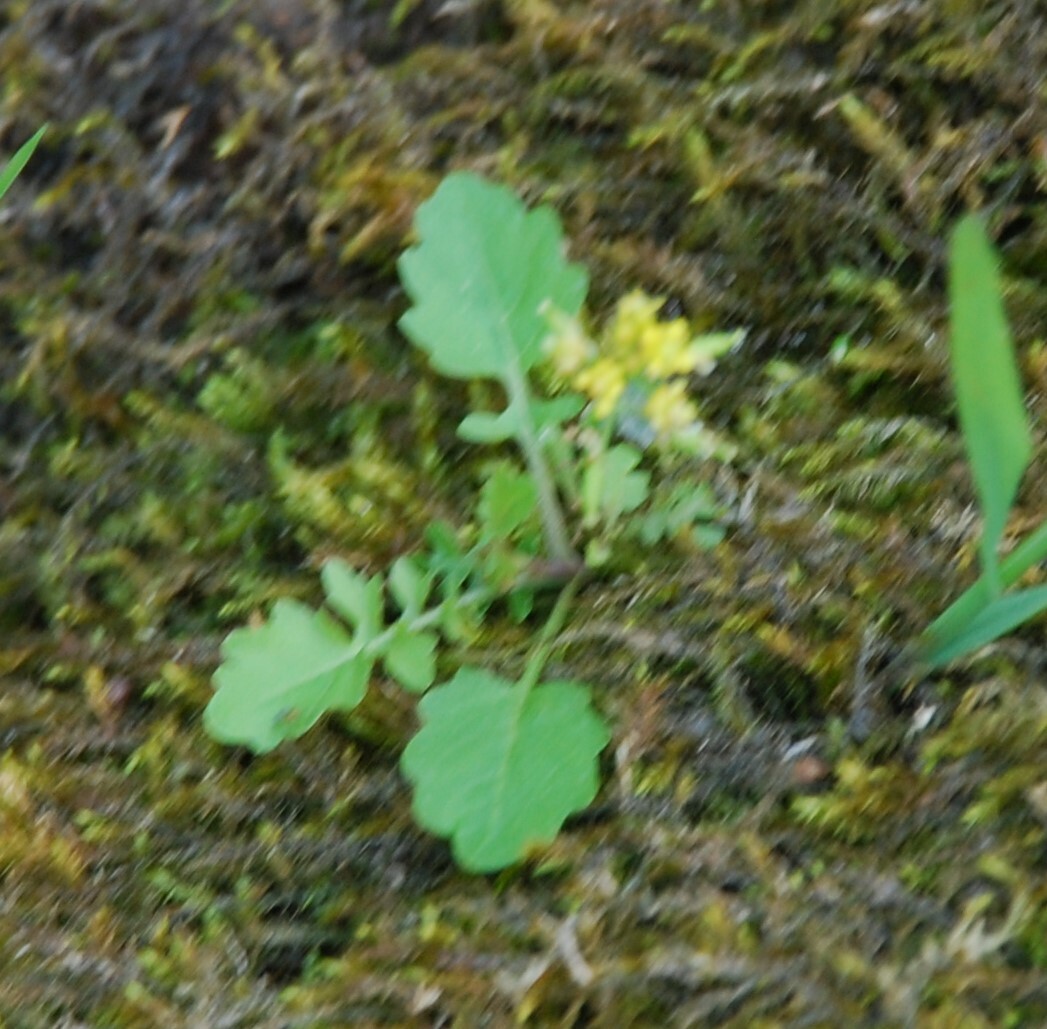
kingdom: Plantae
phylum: Tracheophyta
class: Magnoliopsida
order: Brassicales
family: Brassicaceae
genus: Rorippa
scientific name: Rorippa palustris
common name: Marsh yellow-cress
